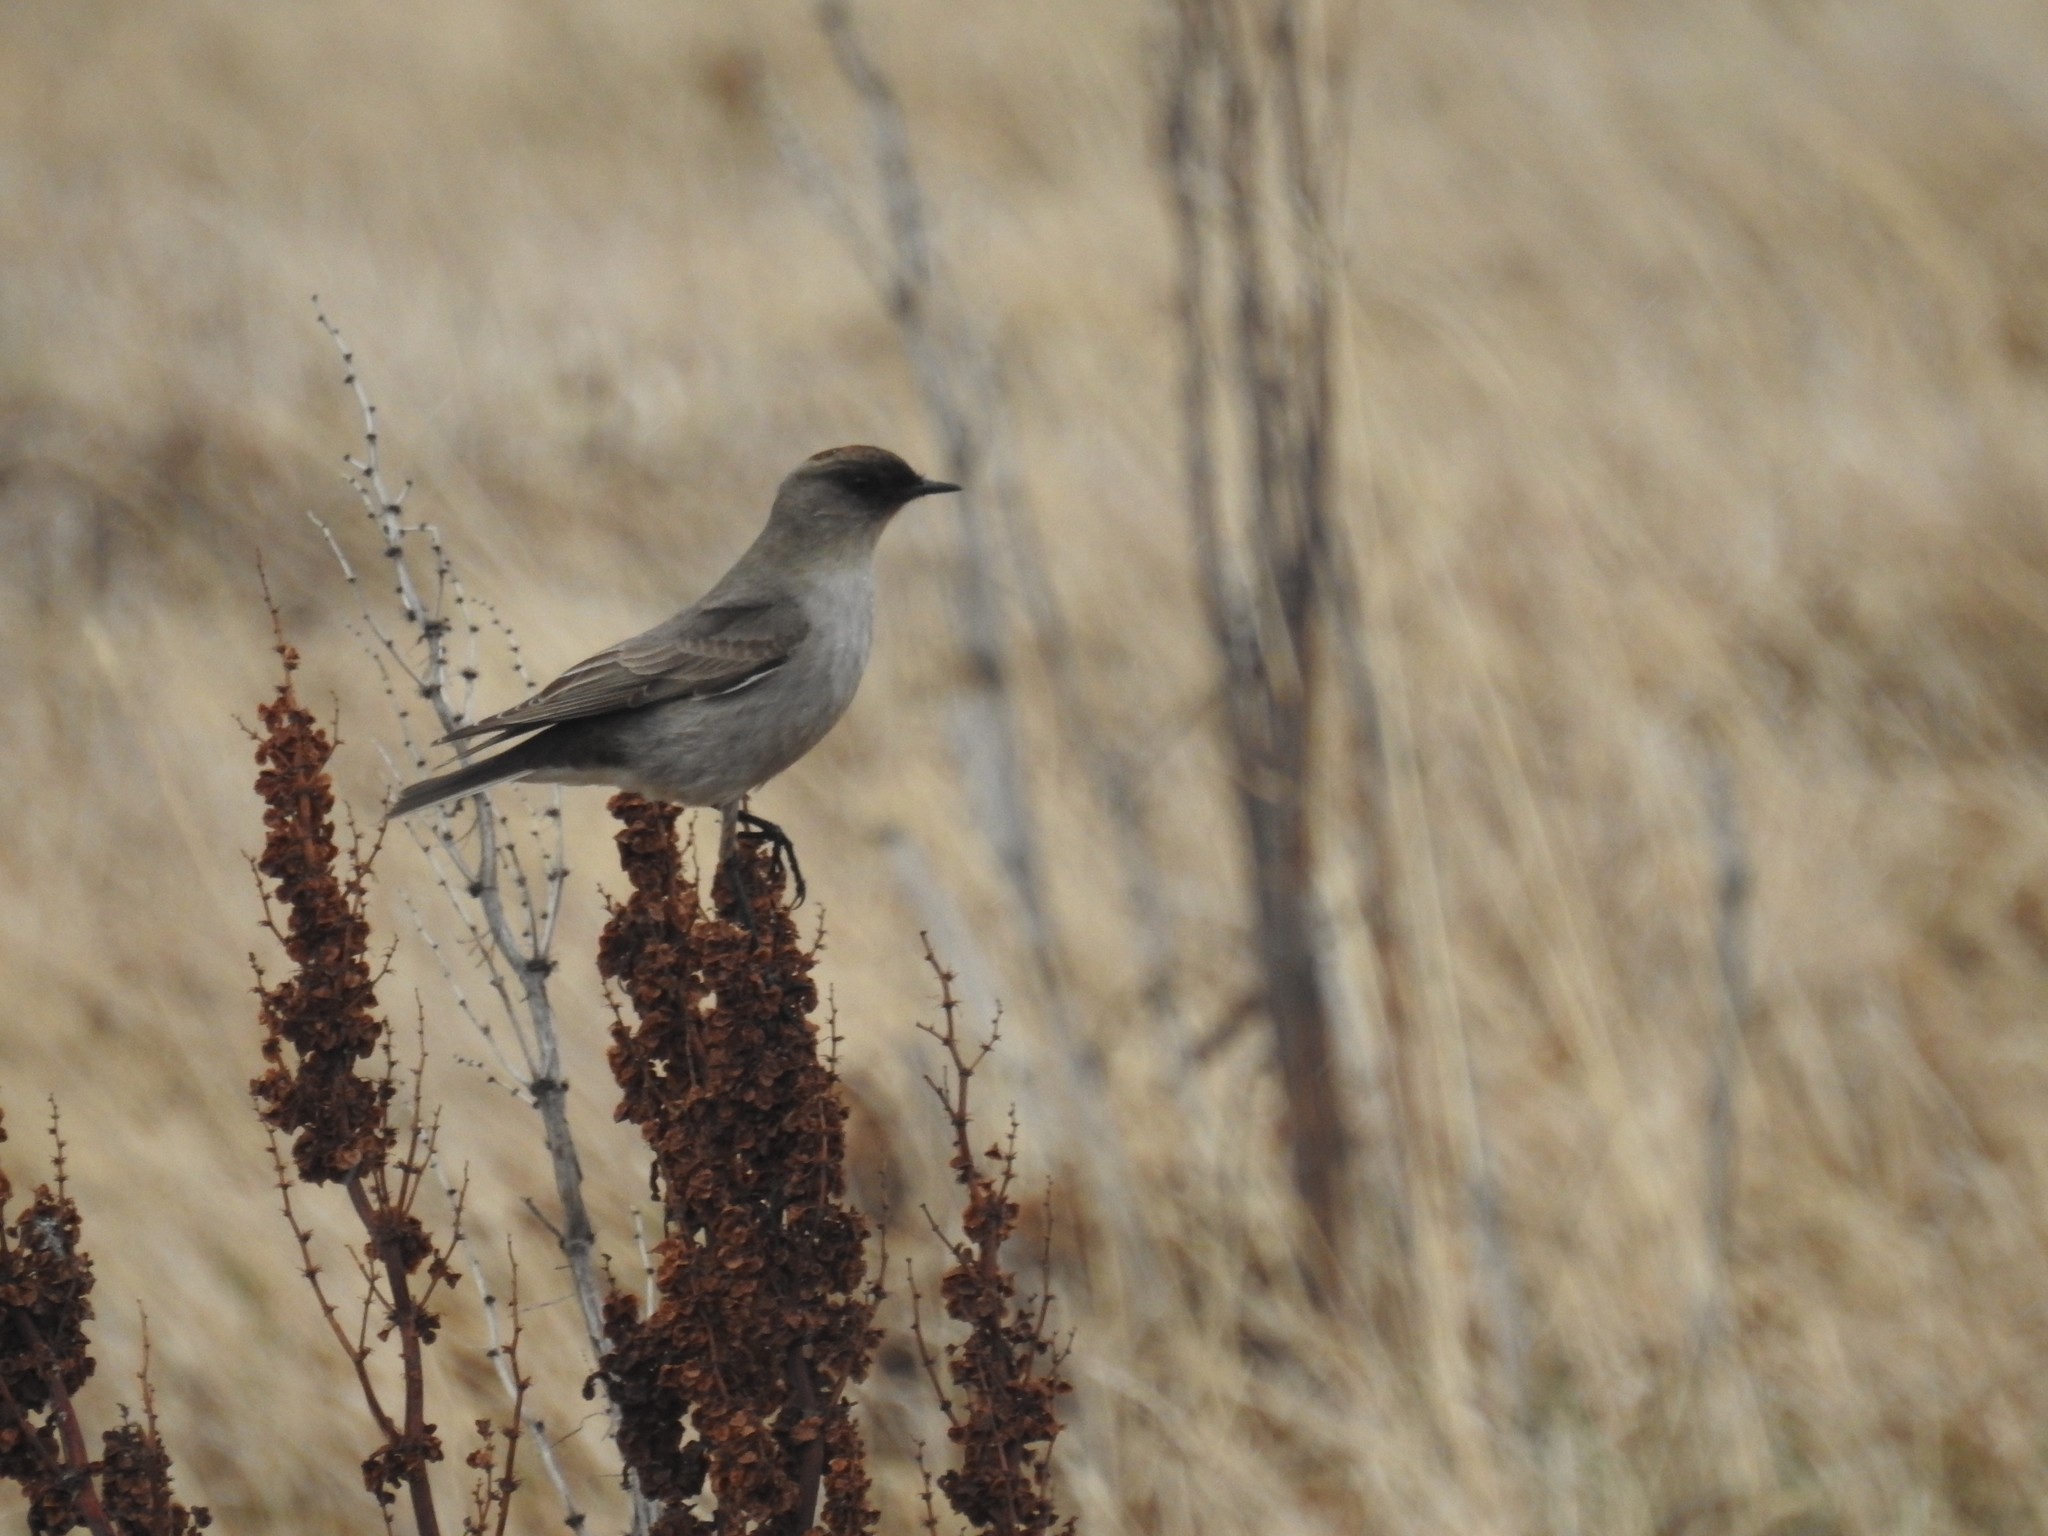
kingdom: Animalia
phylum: Chordata
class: Aves
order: Passeriformes
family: Tyrannidae
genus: Muscisaxicola
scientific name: Muscisaxicola maclovianus
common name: Dark-faced ground tyrant
